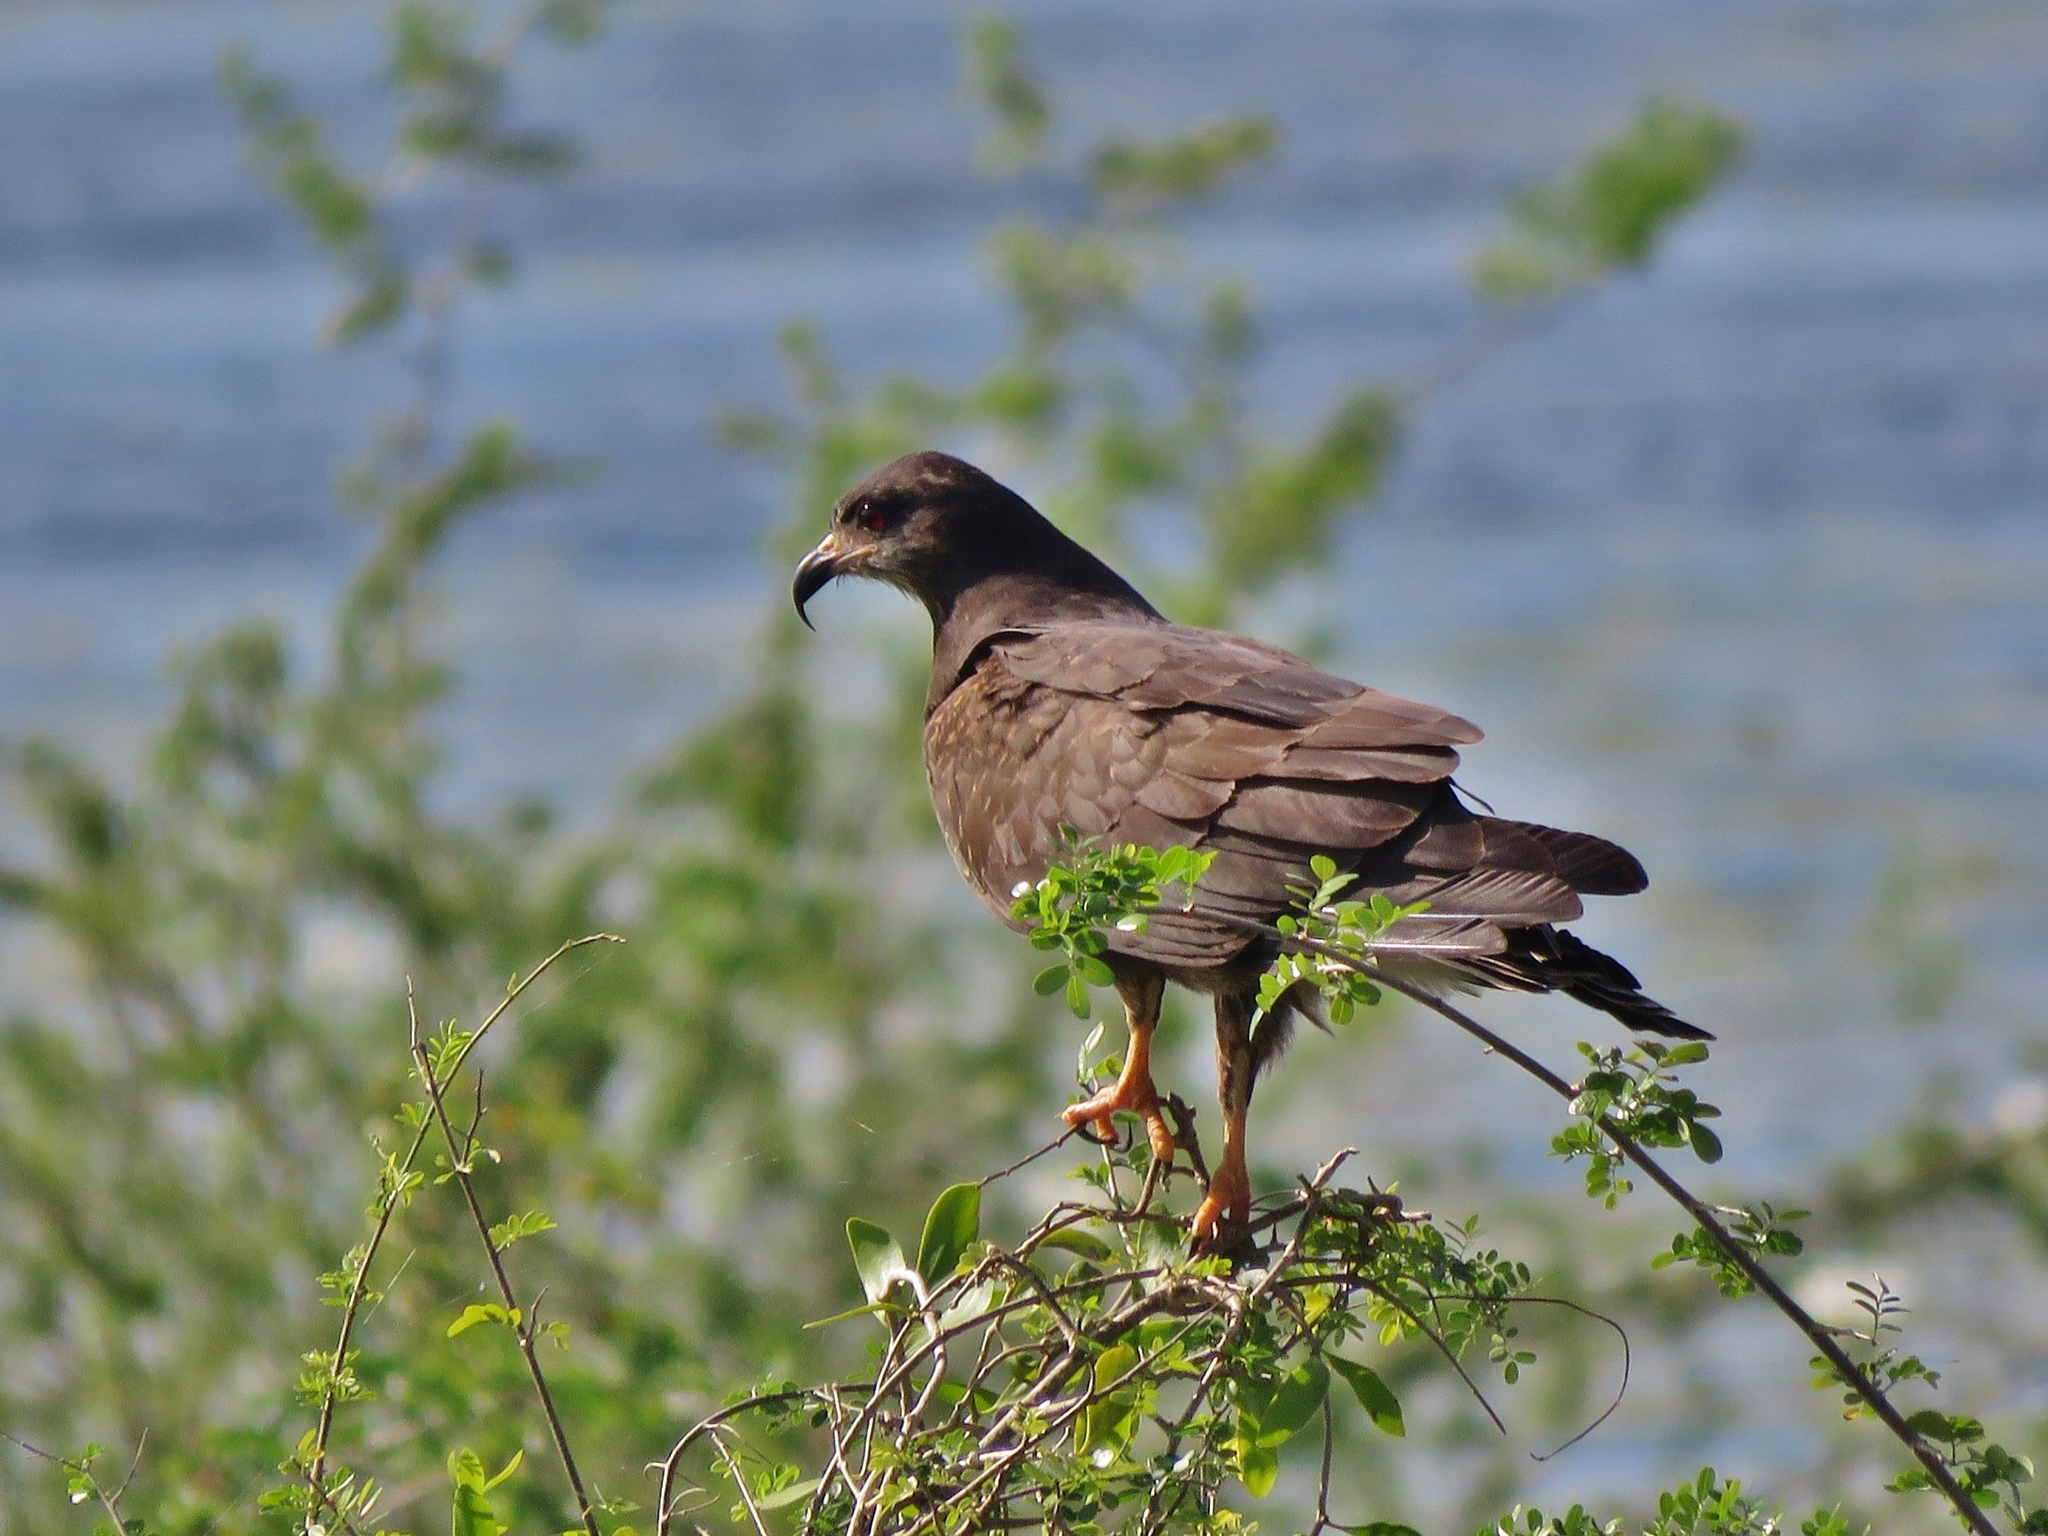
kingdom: Animalia
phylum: Chordata
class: Aves
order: Accipitriformes
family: Accipitridae
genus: Rostrhamus
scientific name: Rostrhamus sociabilis
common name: Snail kite
